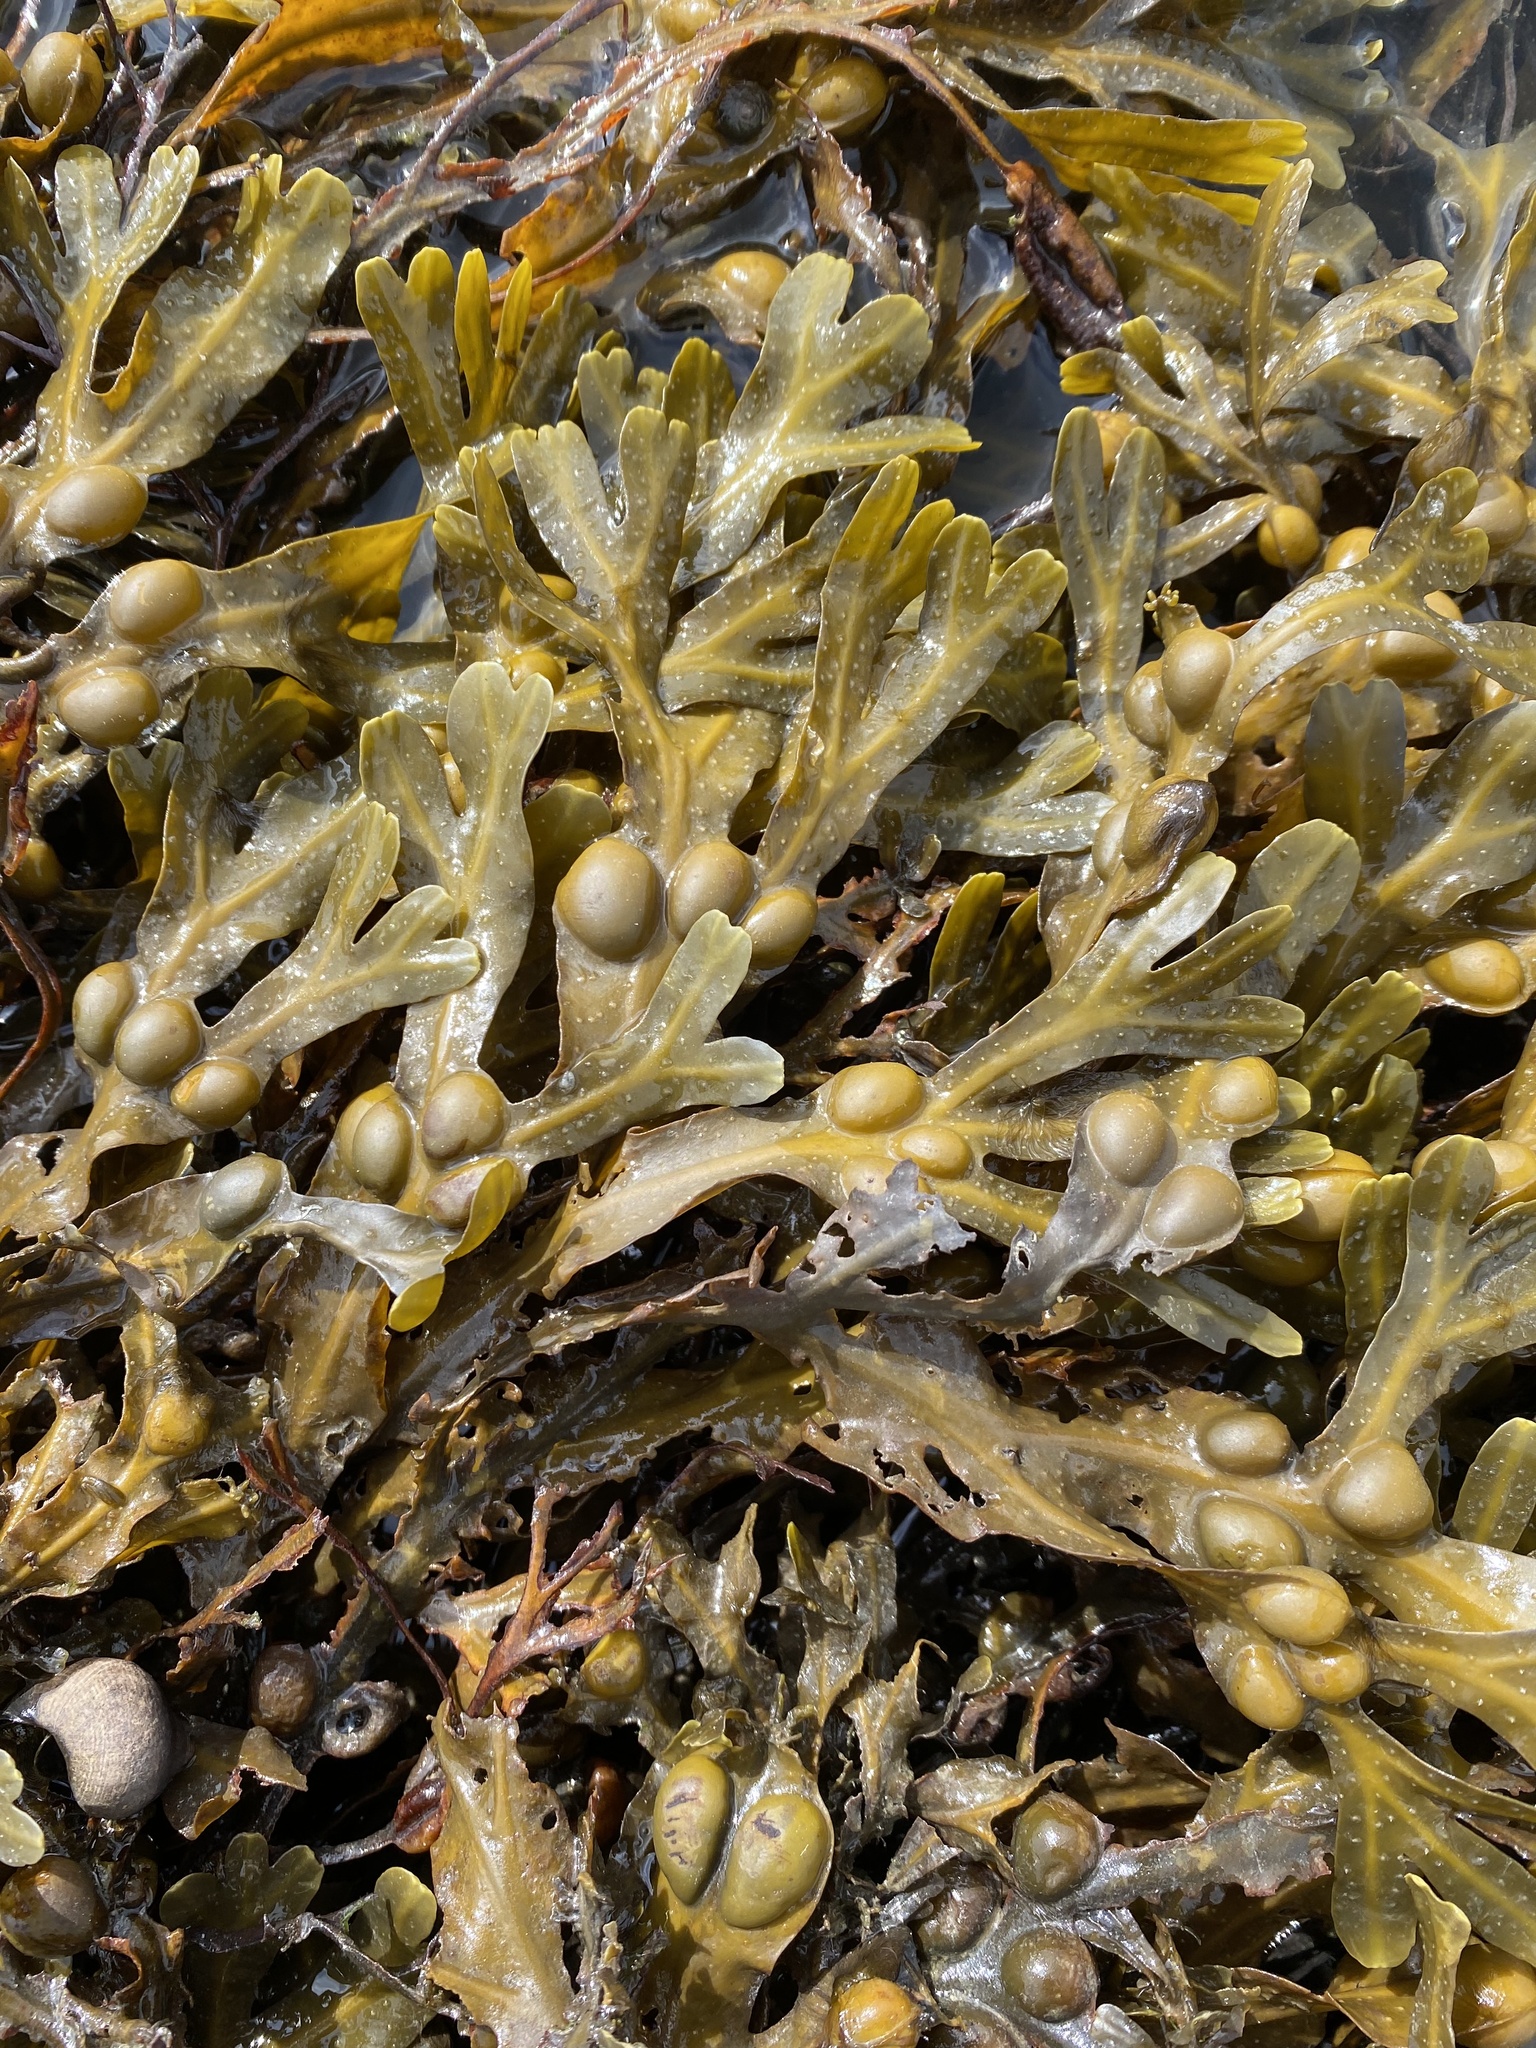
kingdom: Chromista
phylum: Ochrophyta
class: Phaeophyceae
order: Fucales
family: Fucaceae
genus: Fucus
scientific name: Fucus vesiculosus
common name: Bladder wrack
